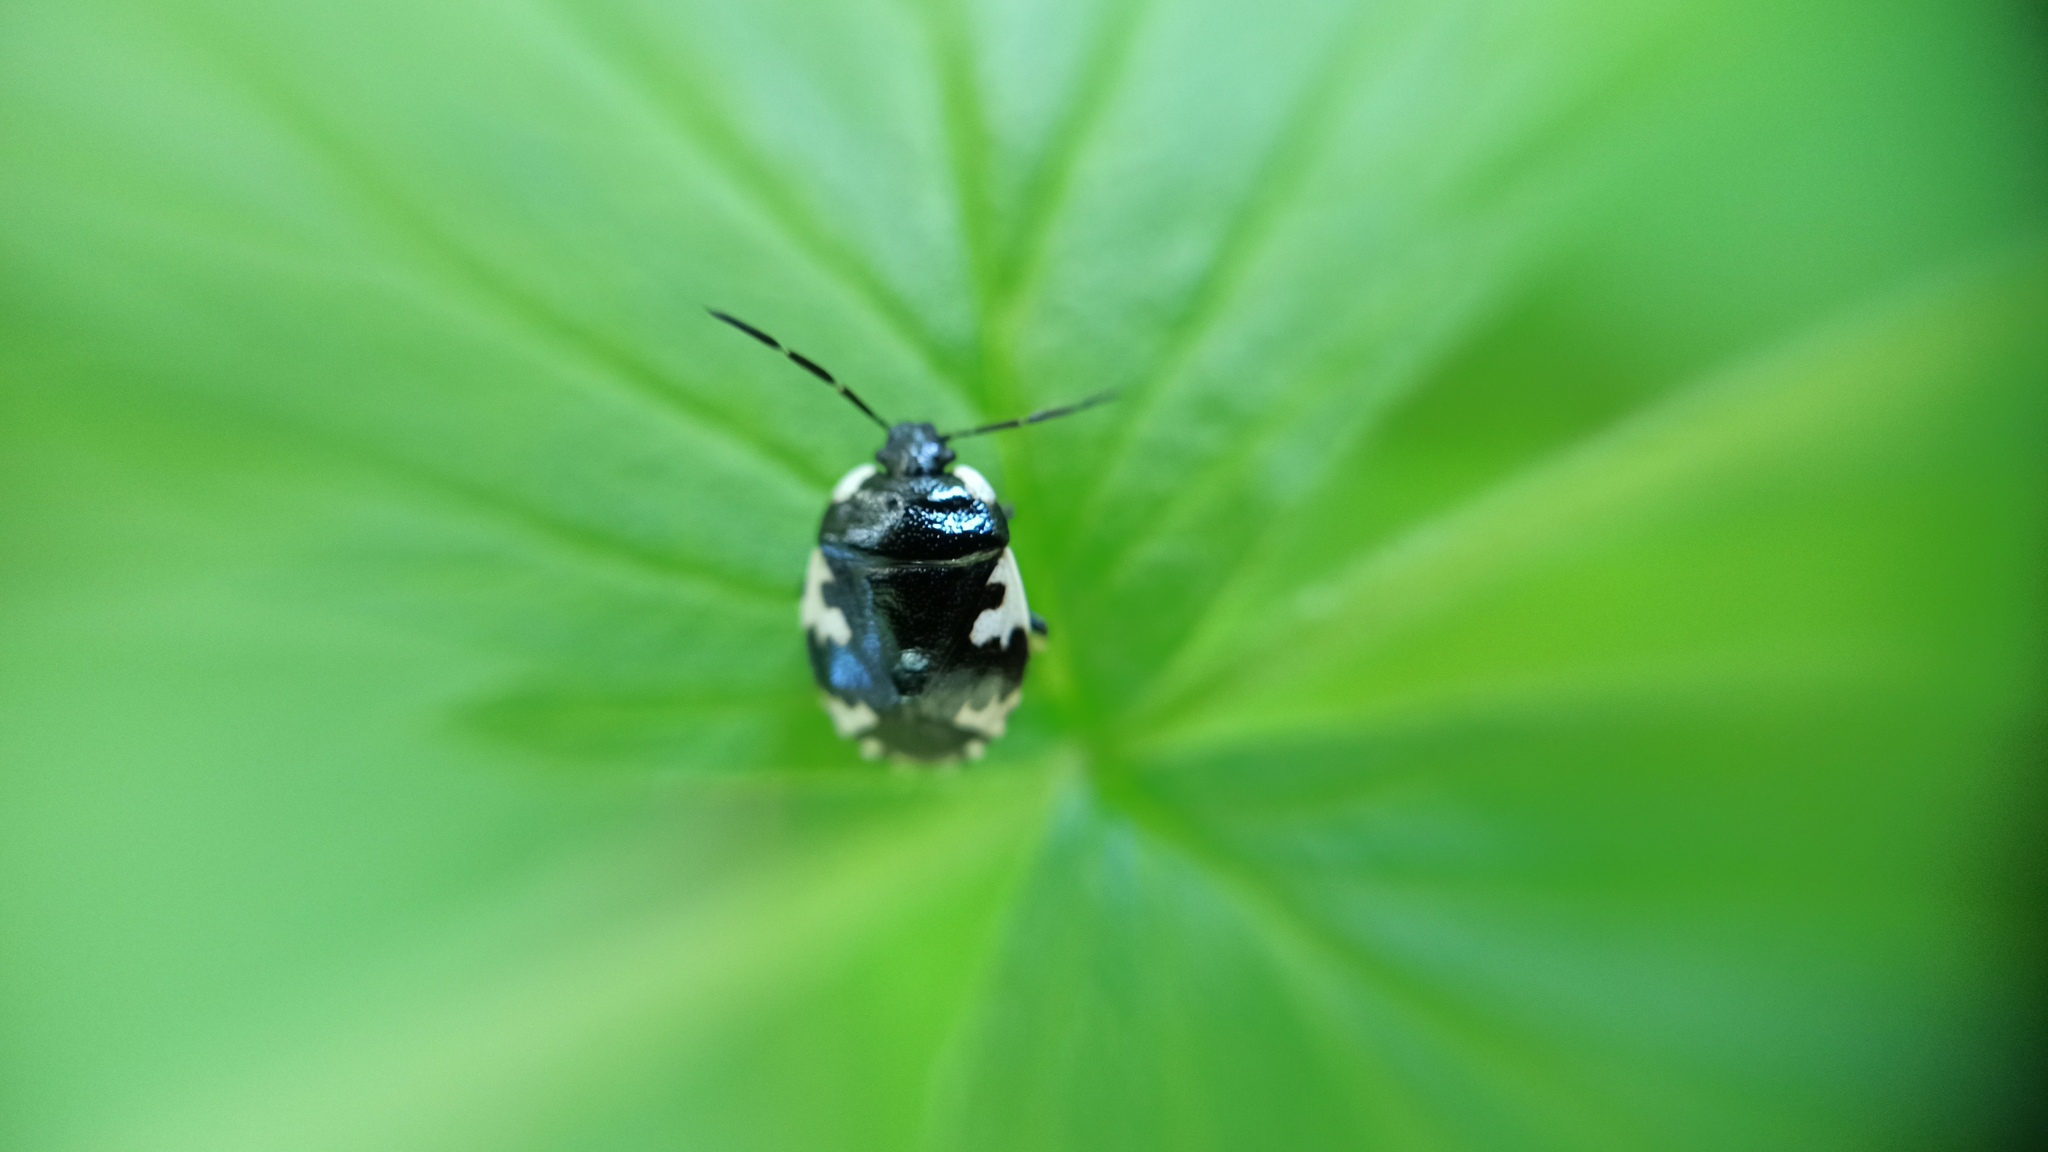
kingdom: Animalia
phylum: Arthropoda
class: Insecta
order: Hemiptera
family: Cydnidae
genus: Tritomegas
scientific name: Tritomegas rotundipennis
